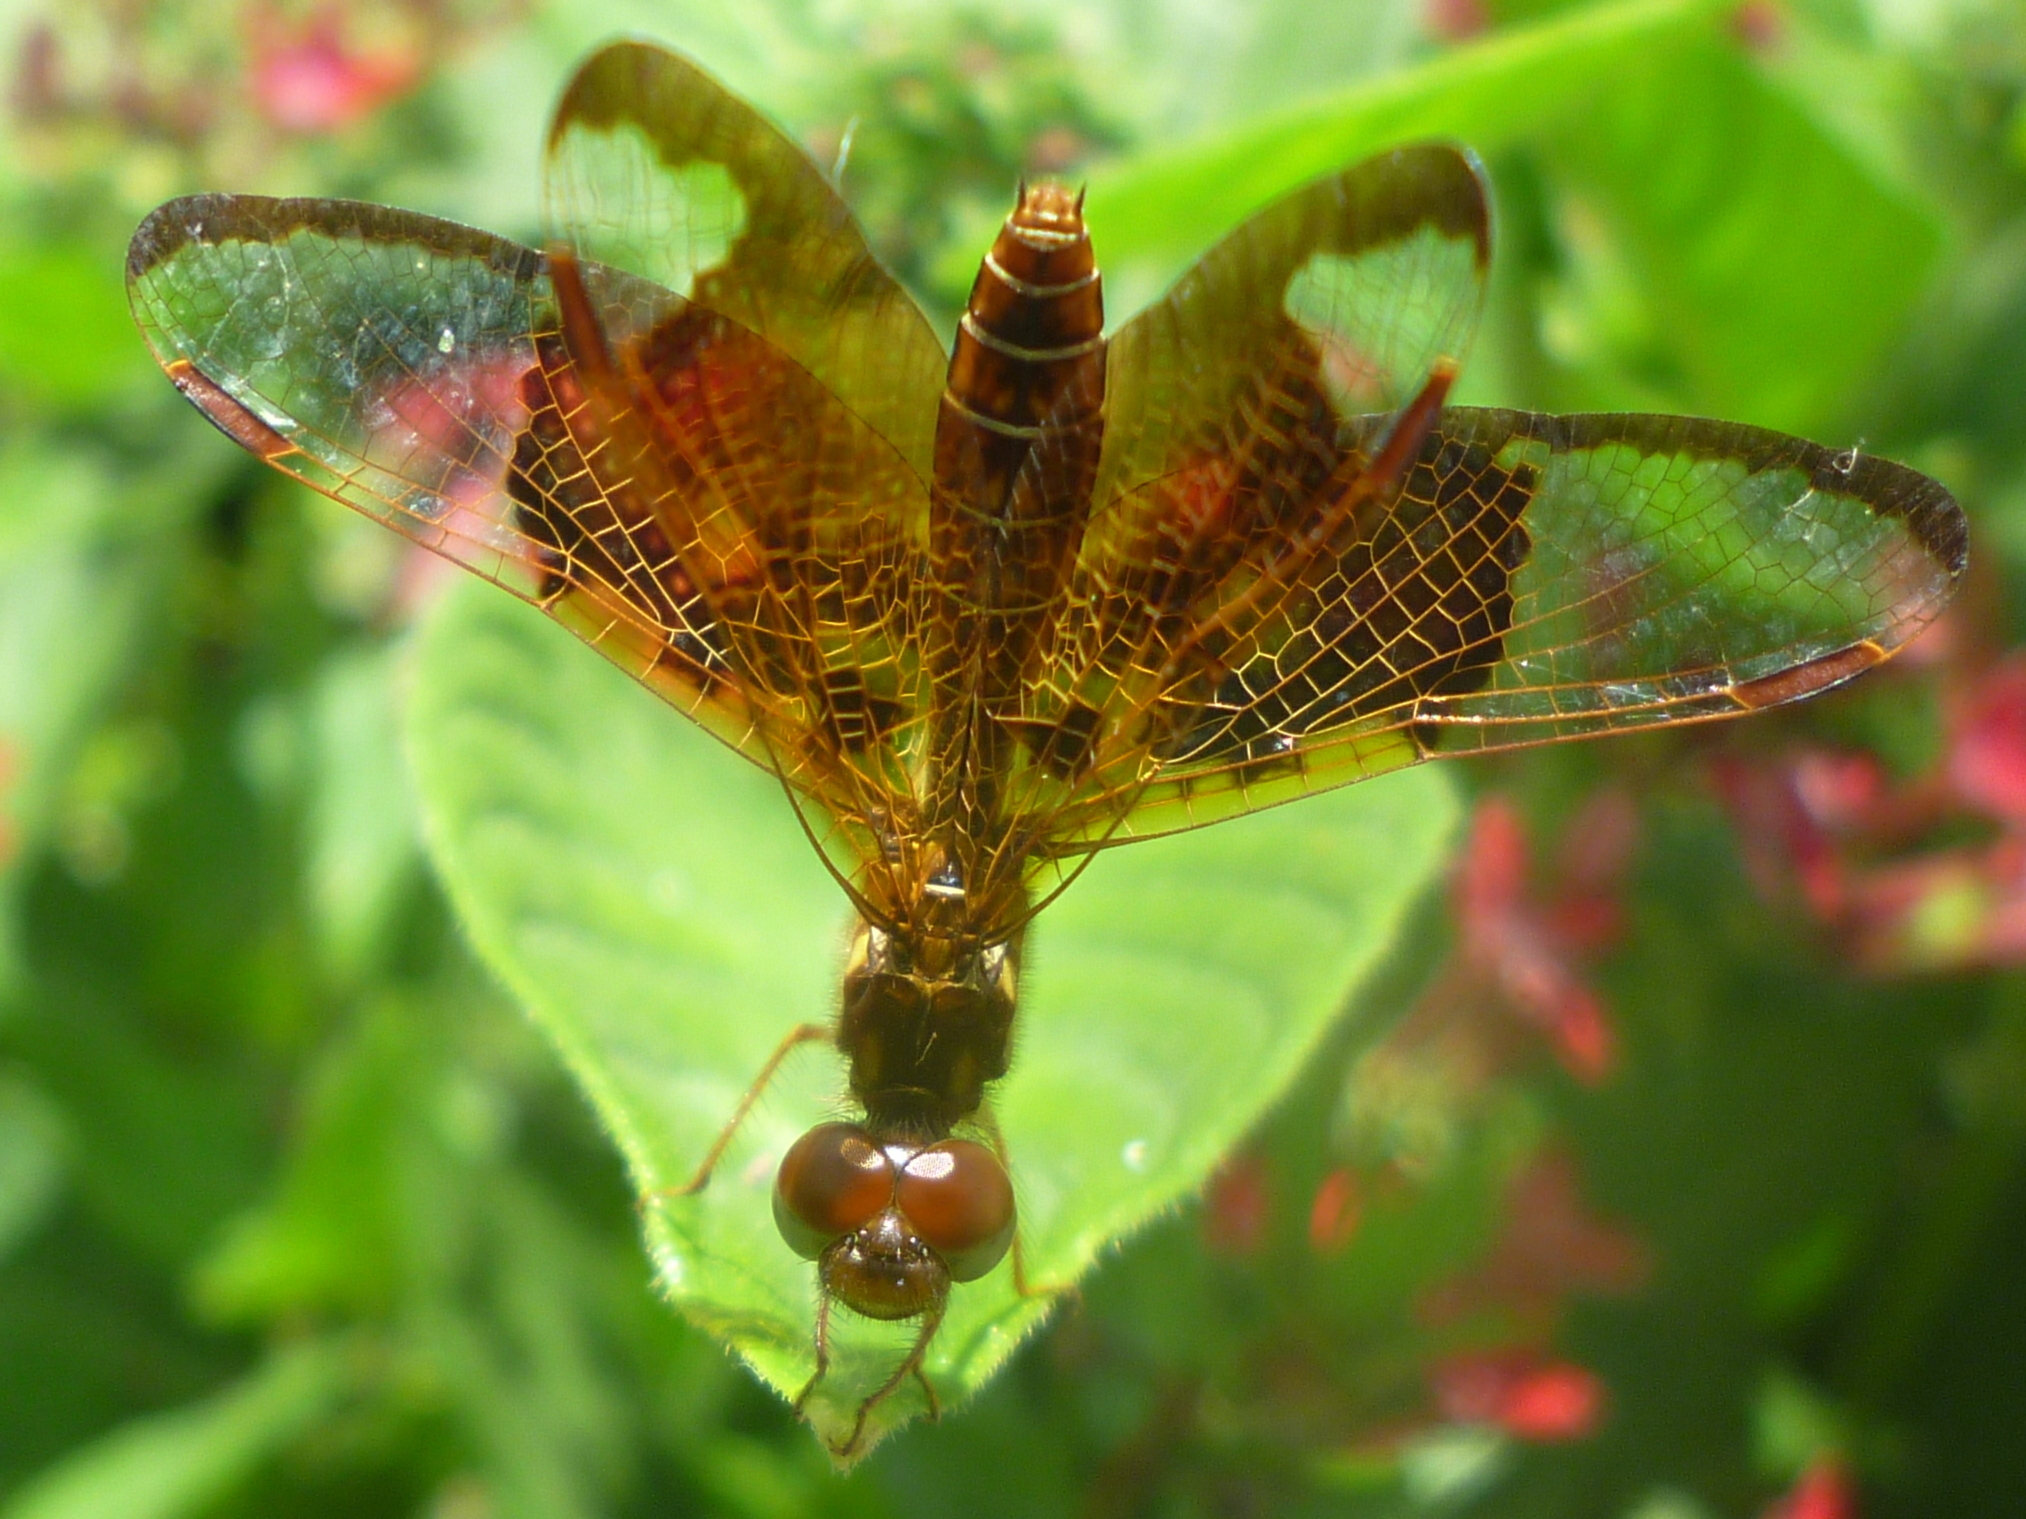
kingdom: Animalia
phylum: Arthropoda
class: Insecta
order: Odonata
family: Libellulidae
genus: Perithemis
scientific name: Perithemis tenera
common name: Eastern amberwing
